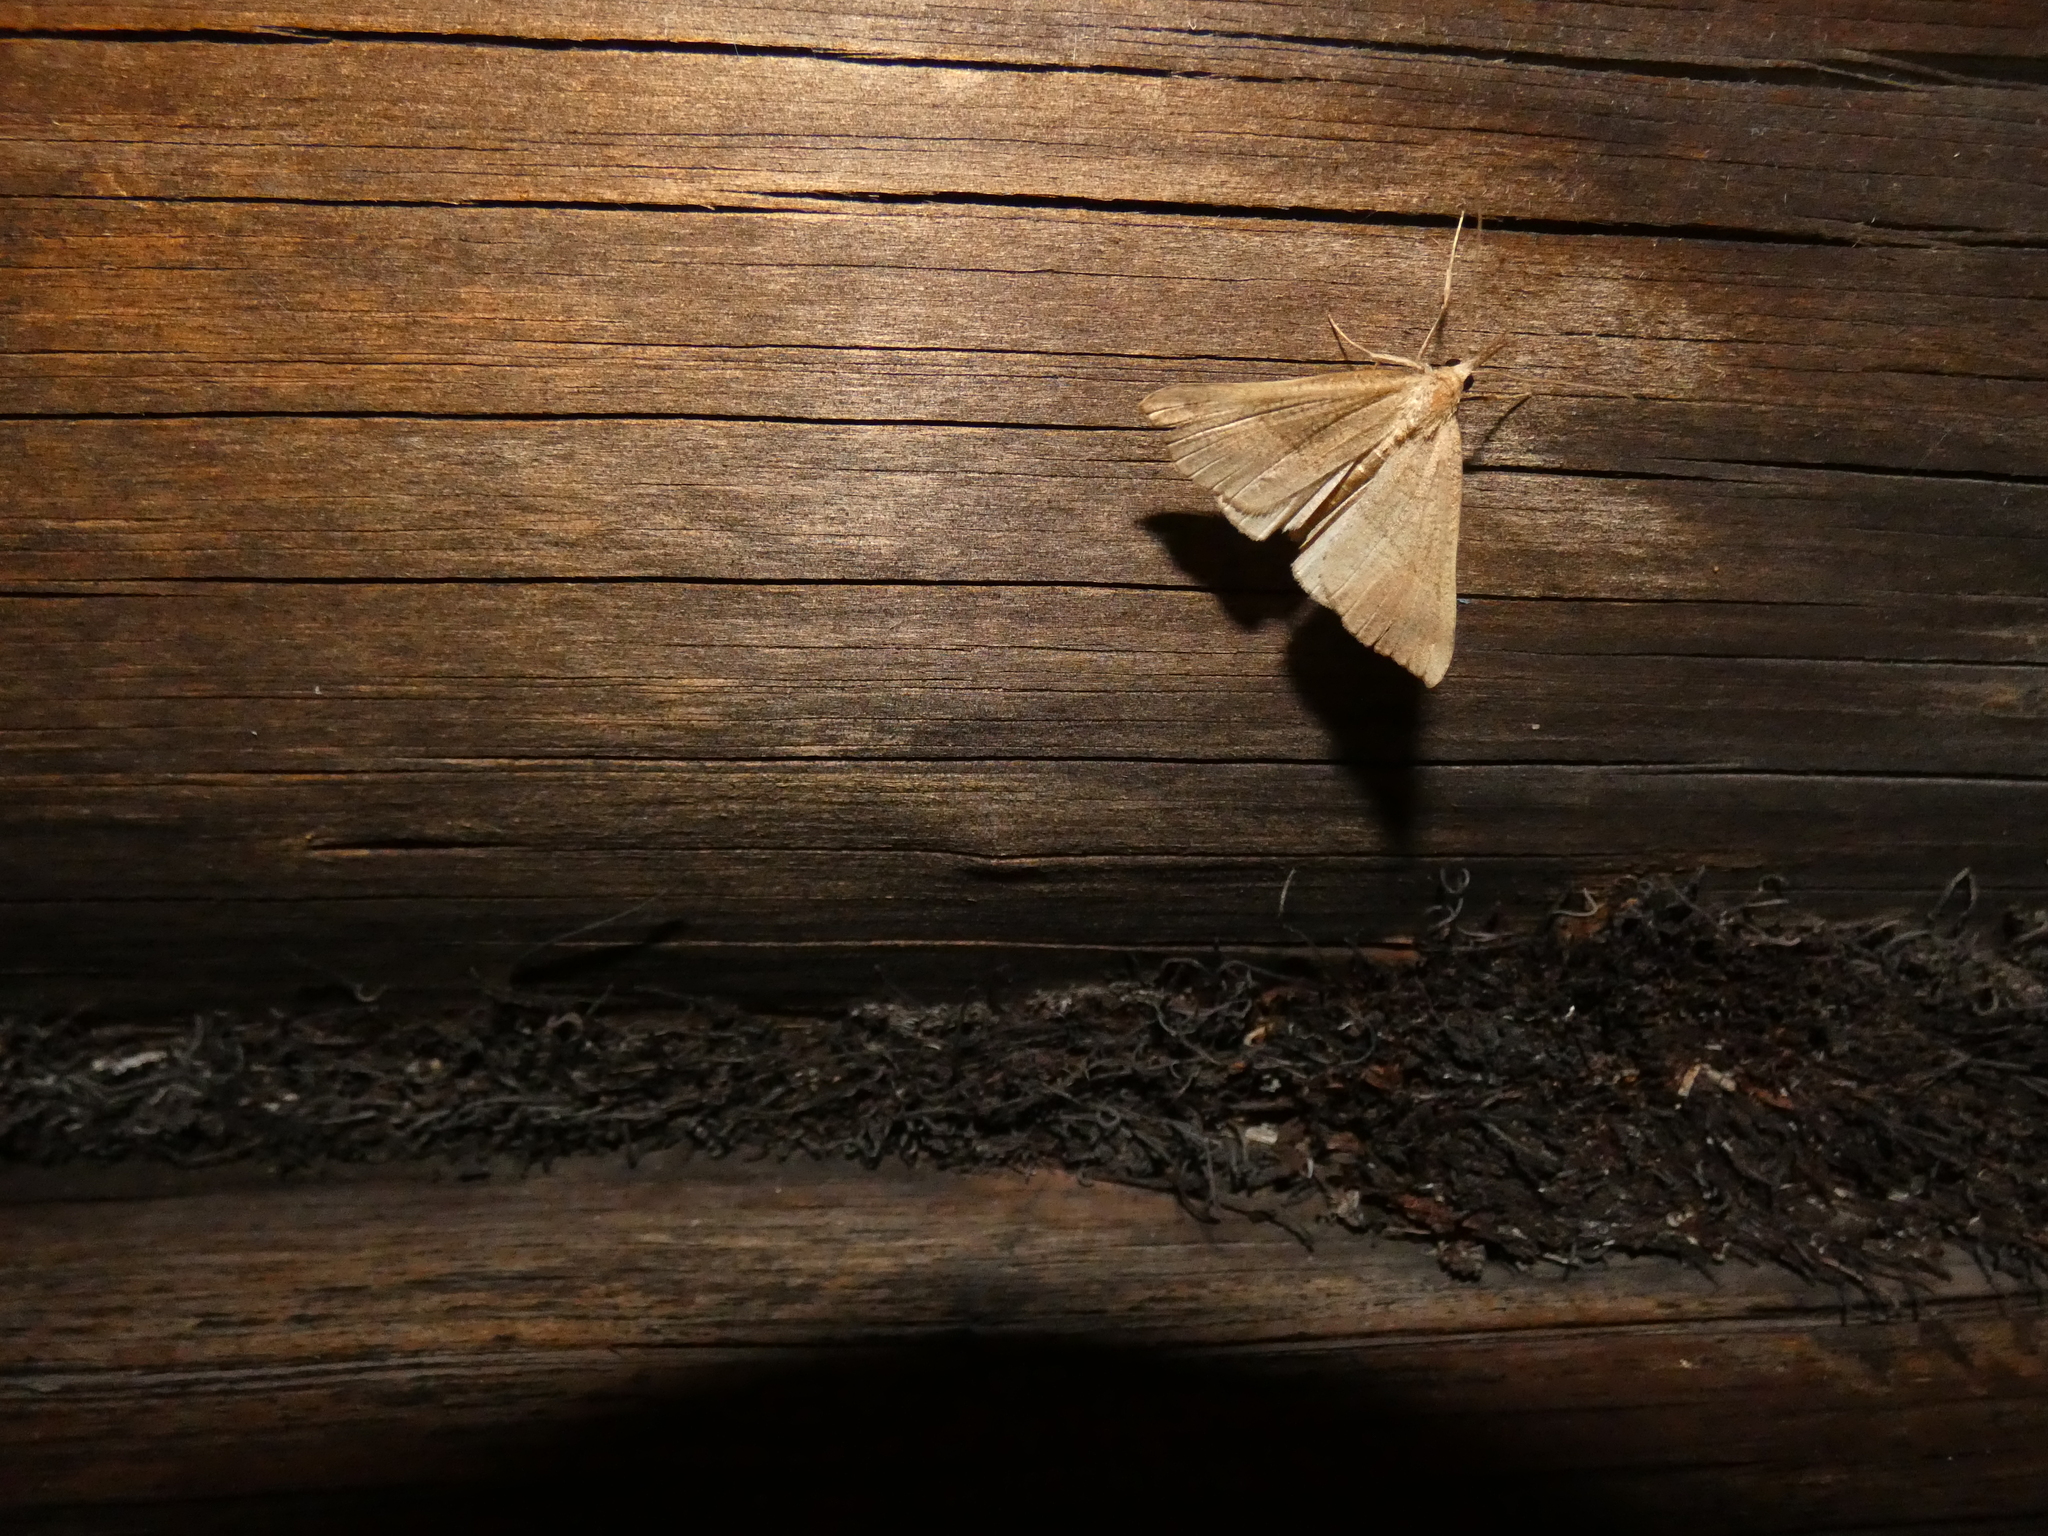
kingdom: Animalia
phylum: Arthropoda
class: Insecta
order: Lepidoptera
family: Erebidae
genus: Hypena
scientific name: Hypena proboscidalis
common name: Snout
